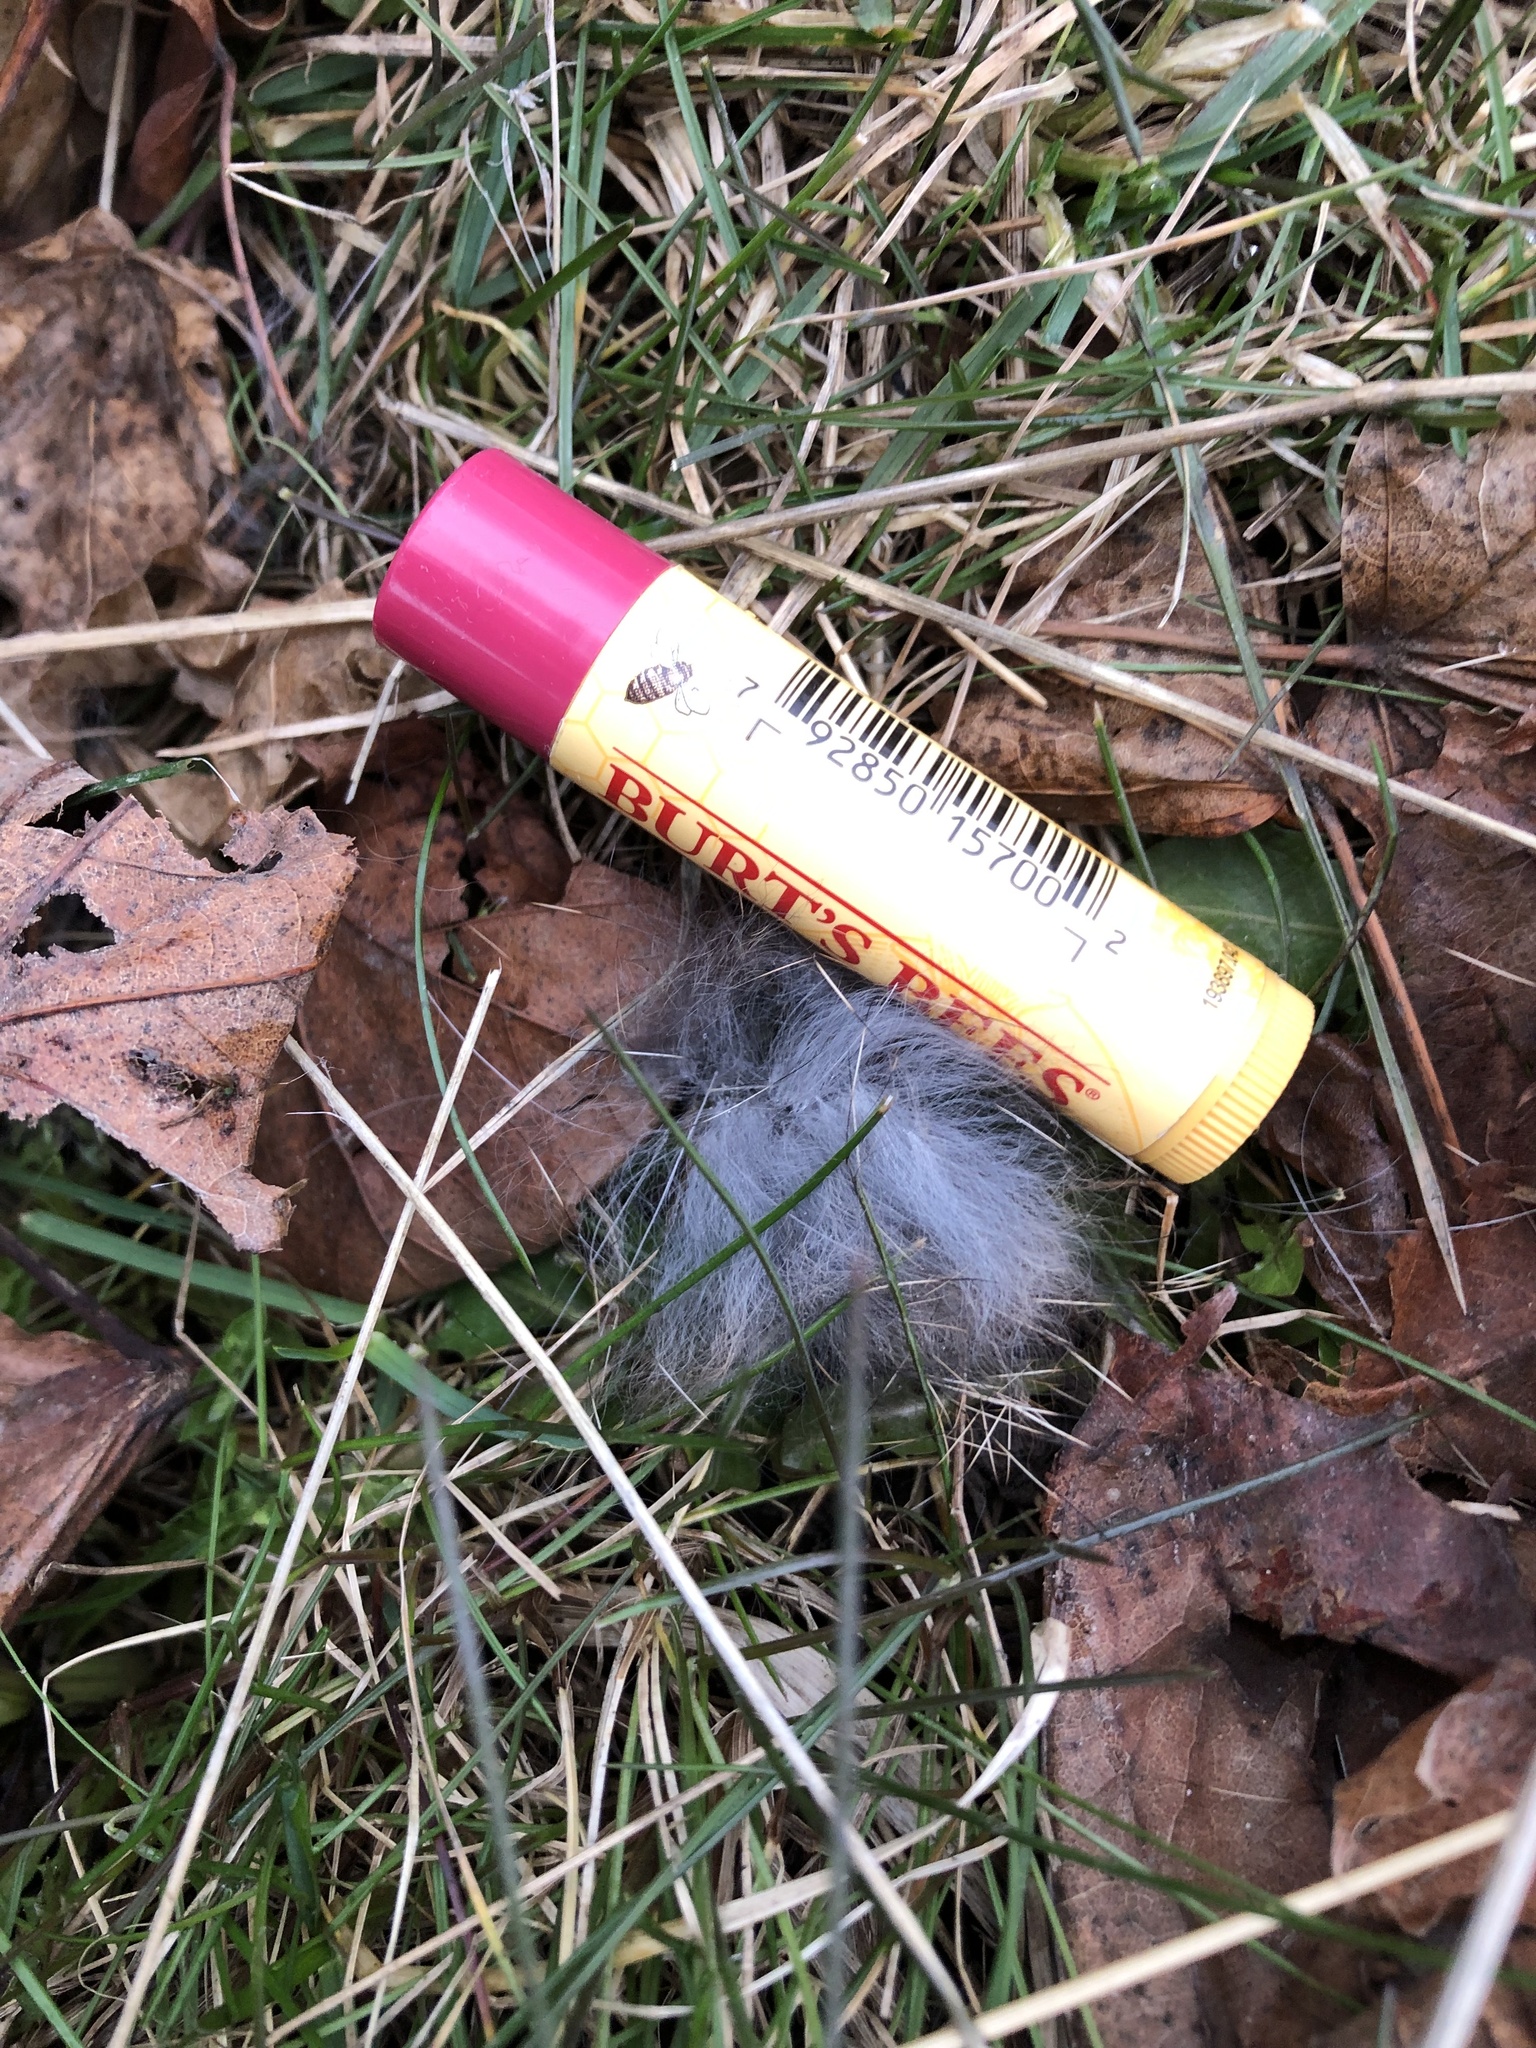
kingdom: Animalia
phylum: Chordata
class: Mammalia
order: Lagomorpha
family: Leporidae
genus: Sylvilagus
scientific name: Sylvilagus floridanus
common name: Eastern cottontail
